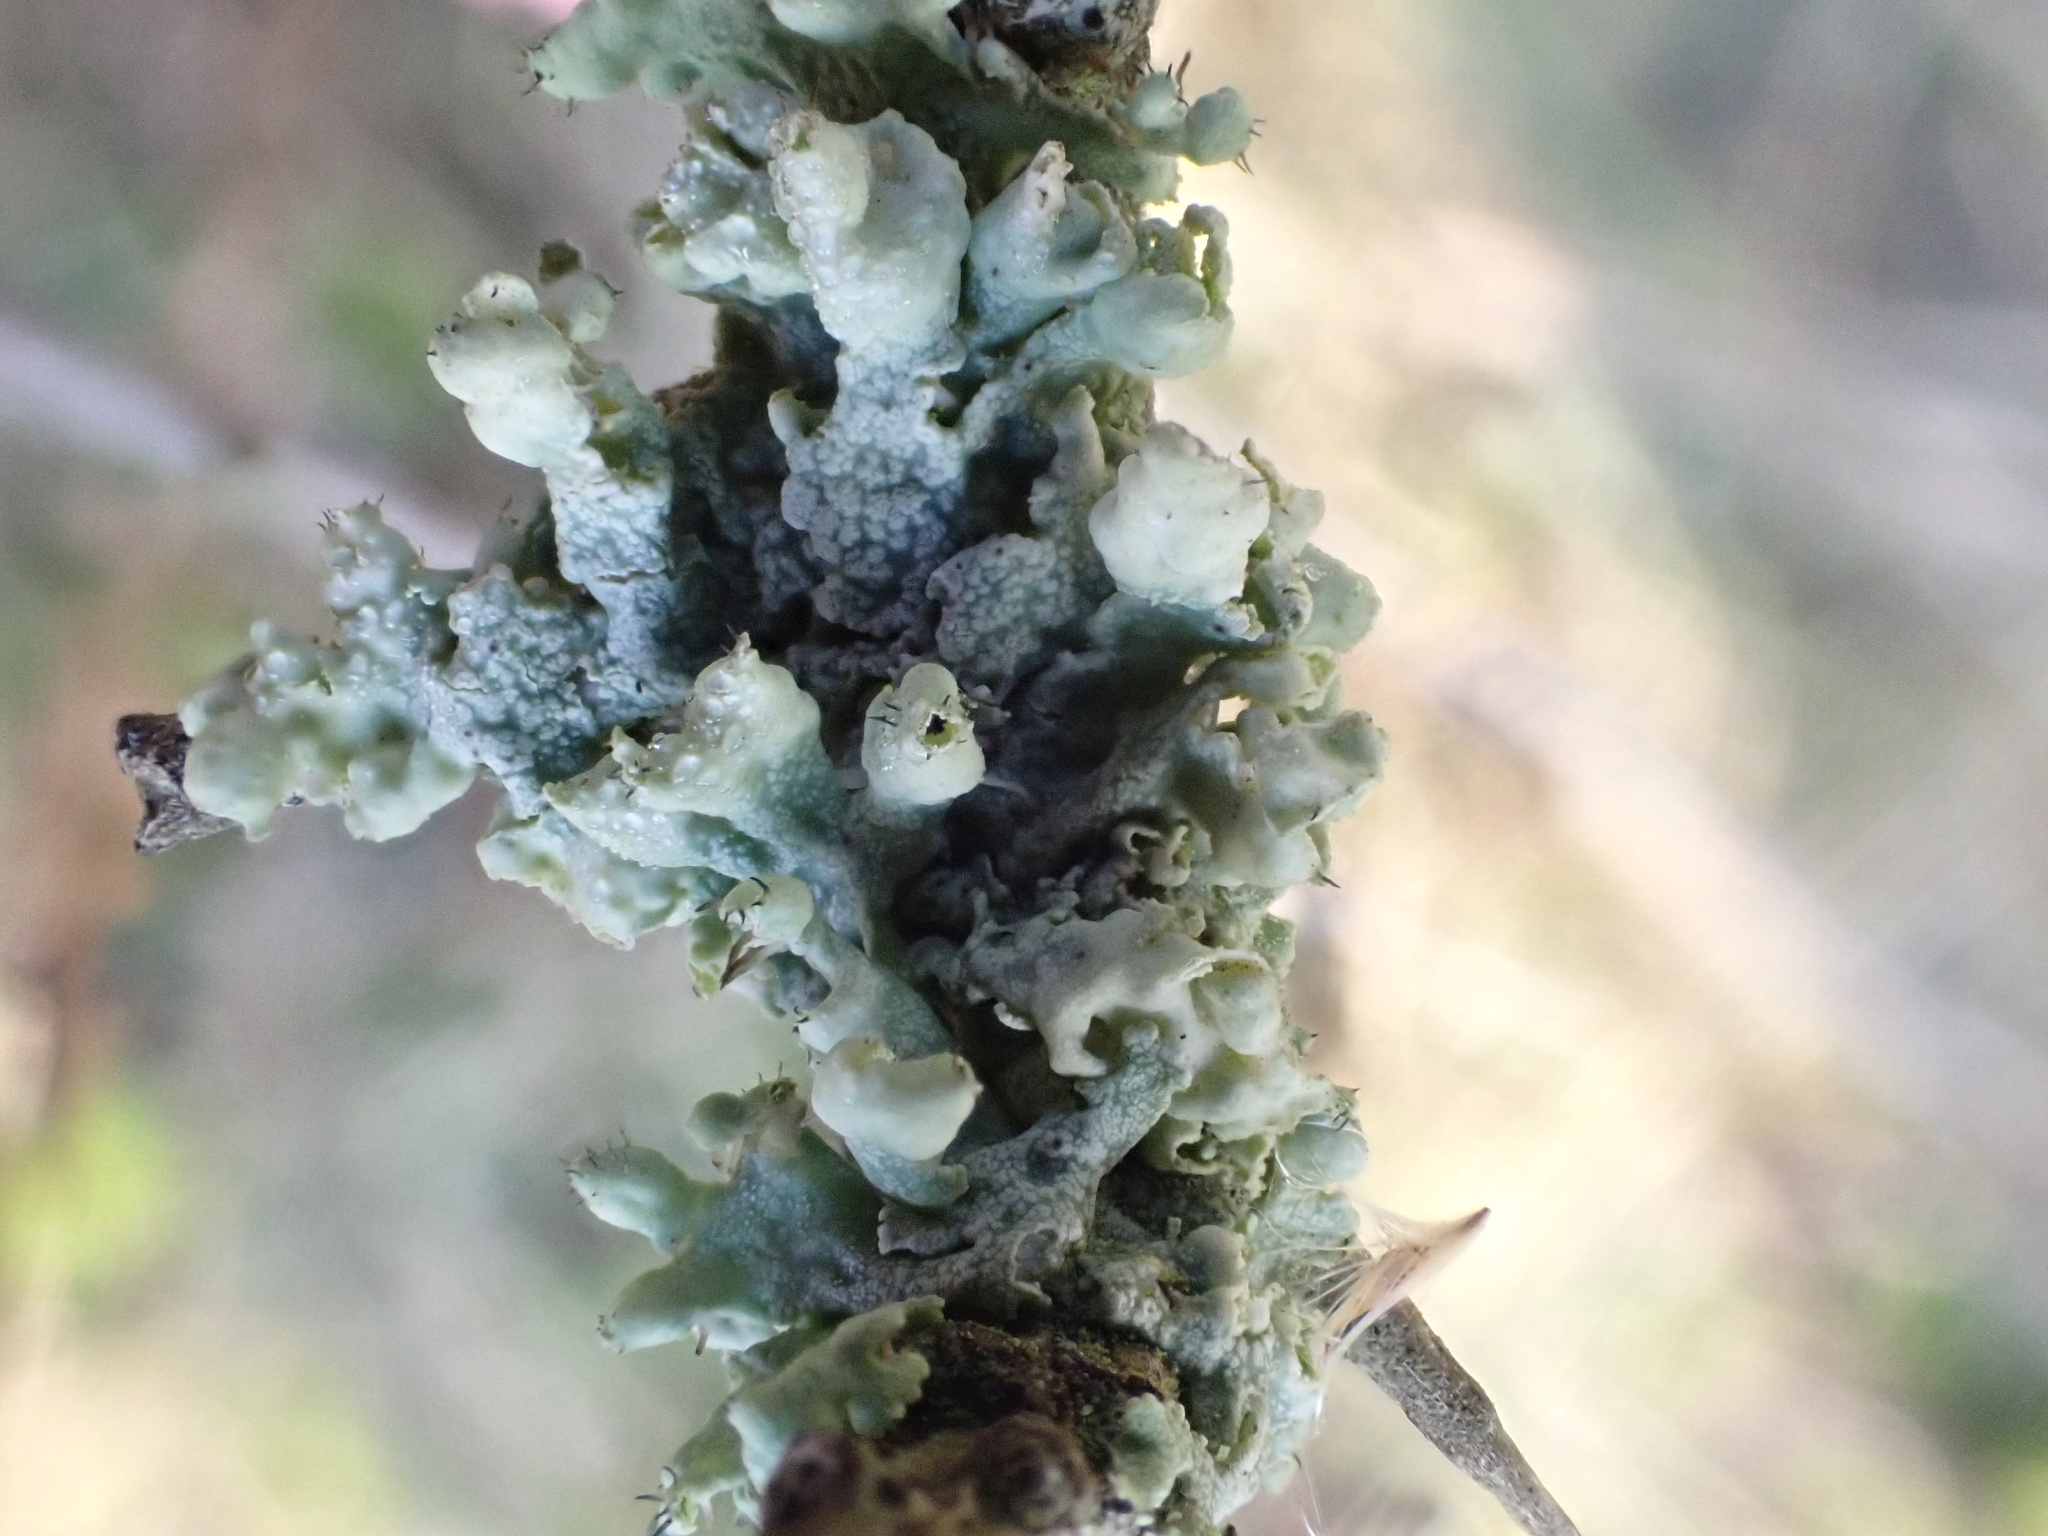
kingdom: Fungi
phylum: Ascomycota
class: Lecanoromycetes
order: Caliciales
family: Physciaceae
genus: Physcia
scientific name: Physcia adscendens
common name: Hooded rosette lichen
